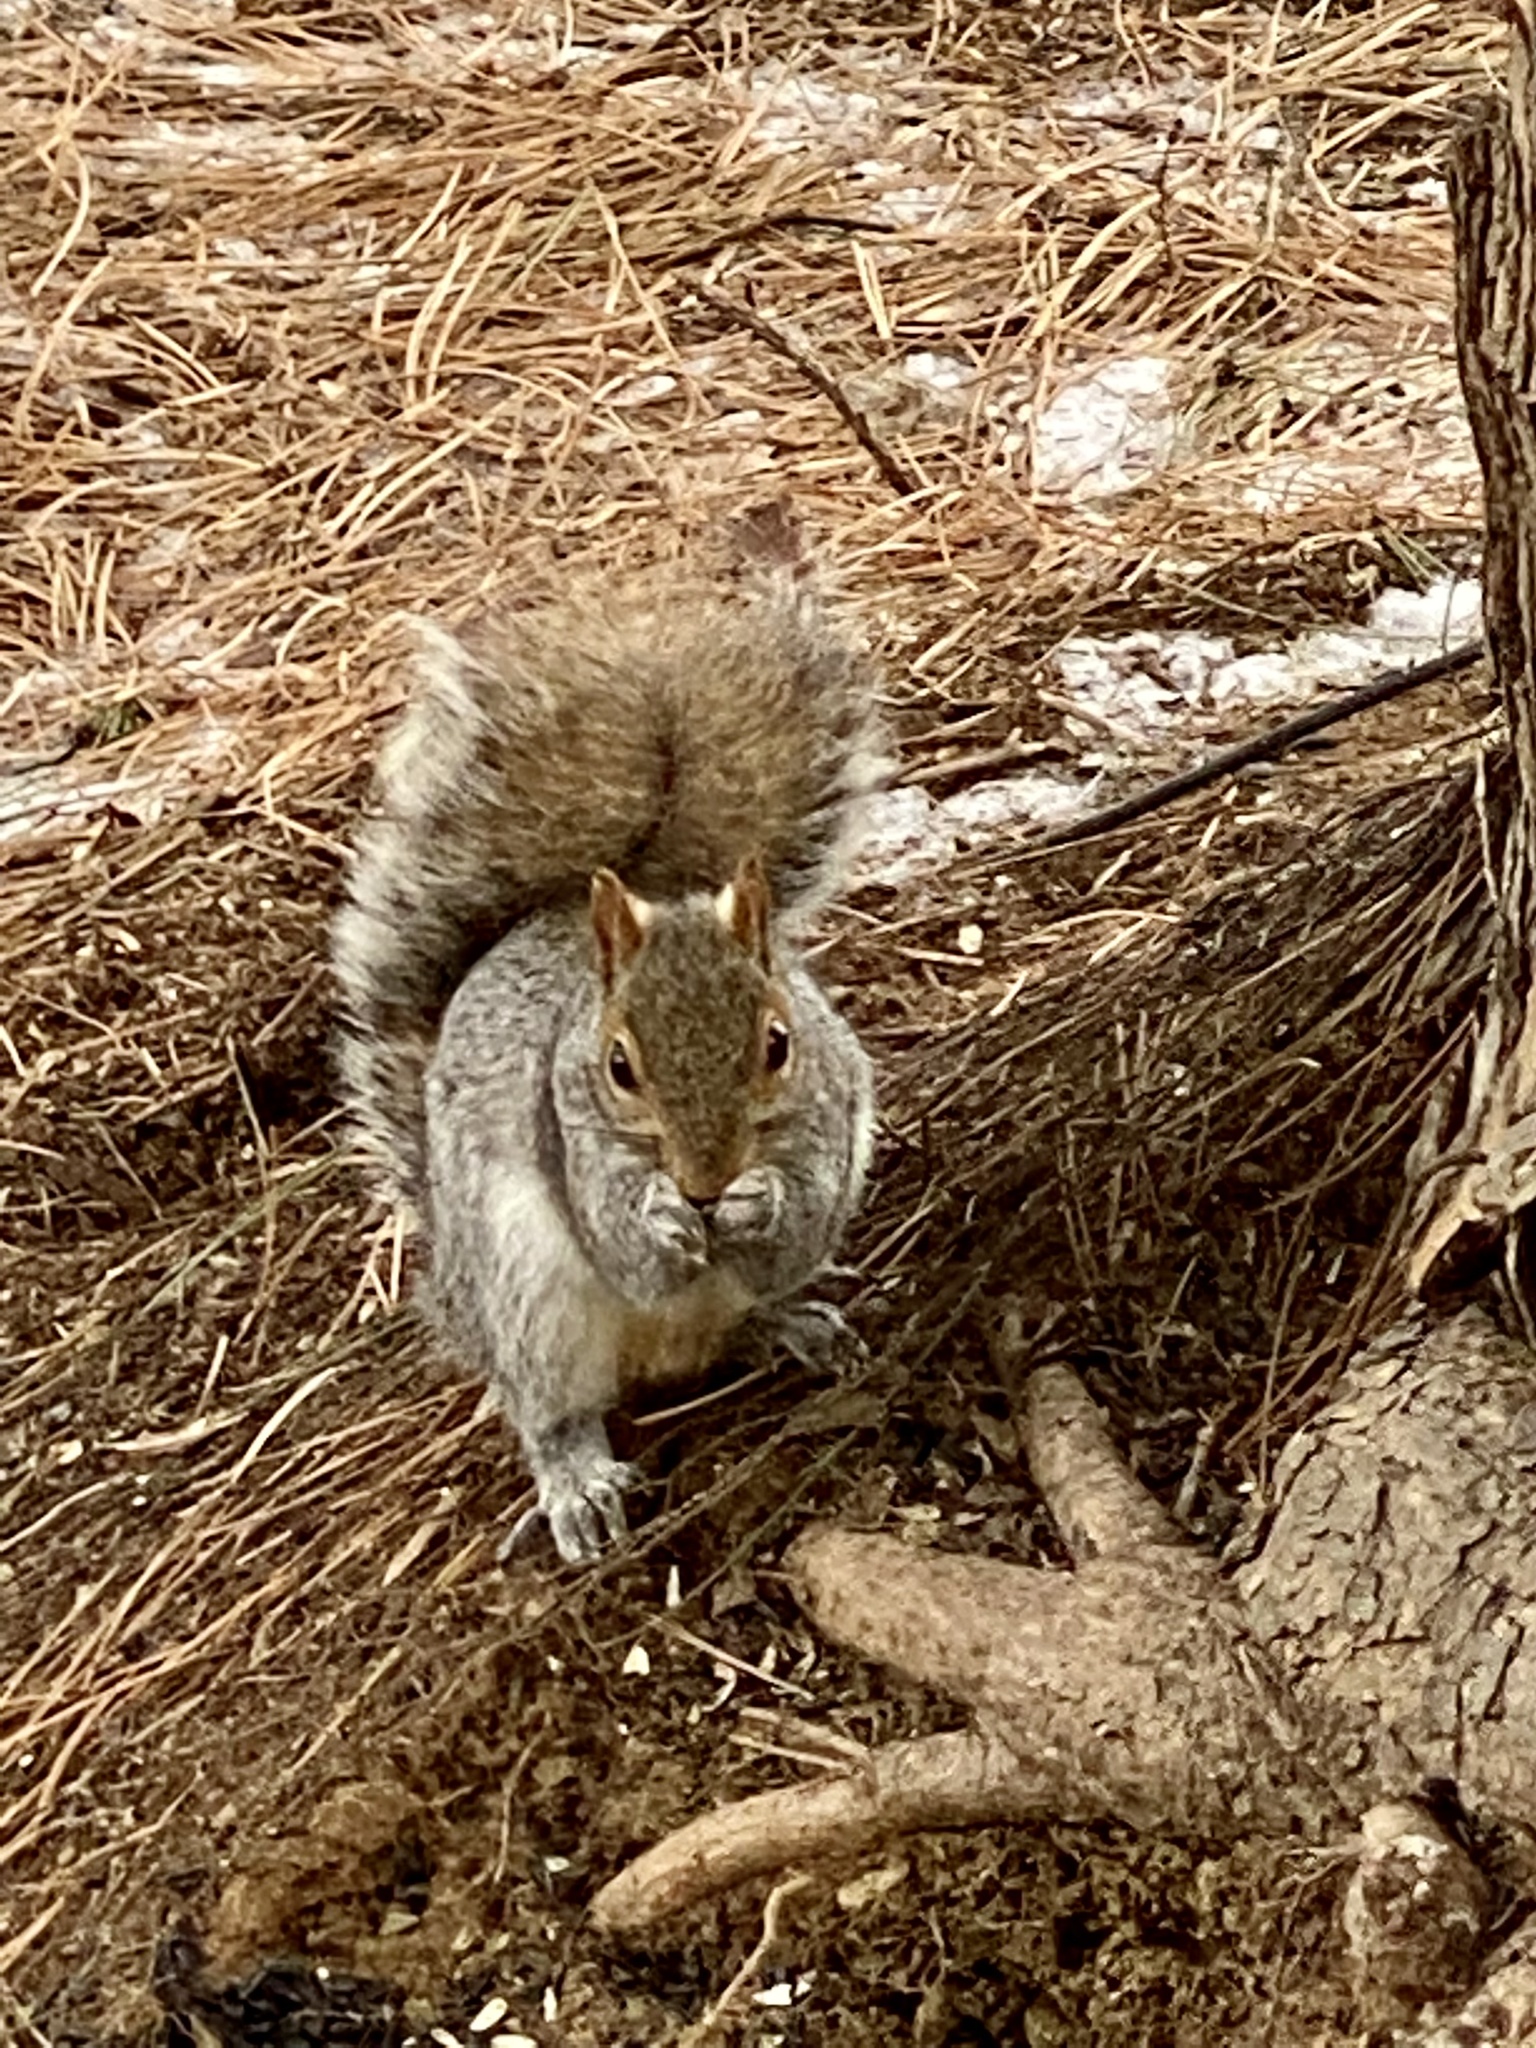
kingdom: Animalia
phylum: Chordata
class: Mammalia
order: Rodentia
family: Sciuridae
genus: Sciurus
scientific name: Sciurus carolinensis
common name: Eastern gray squirrel
